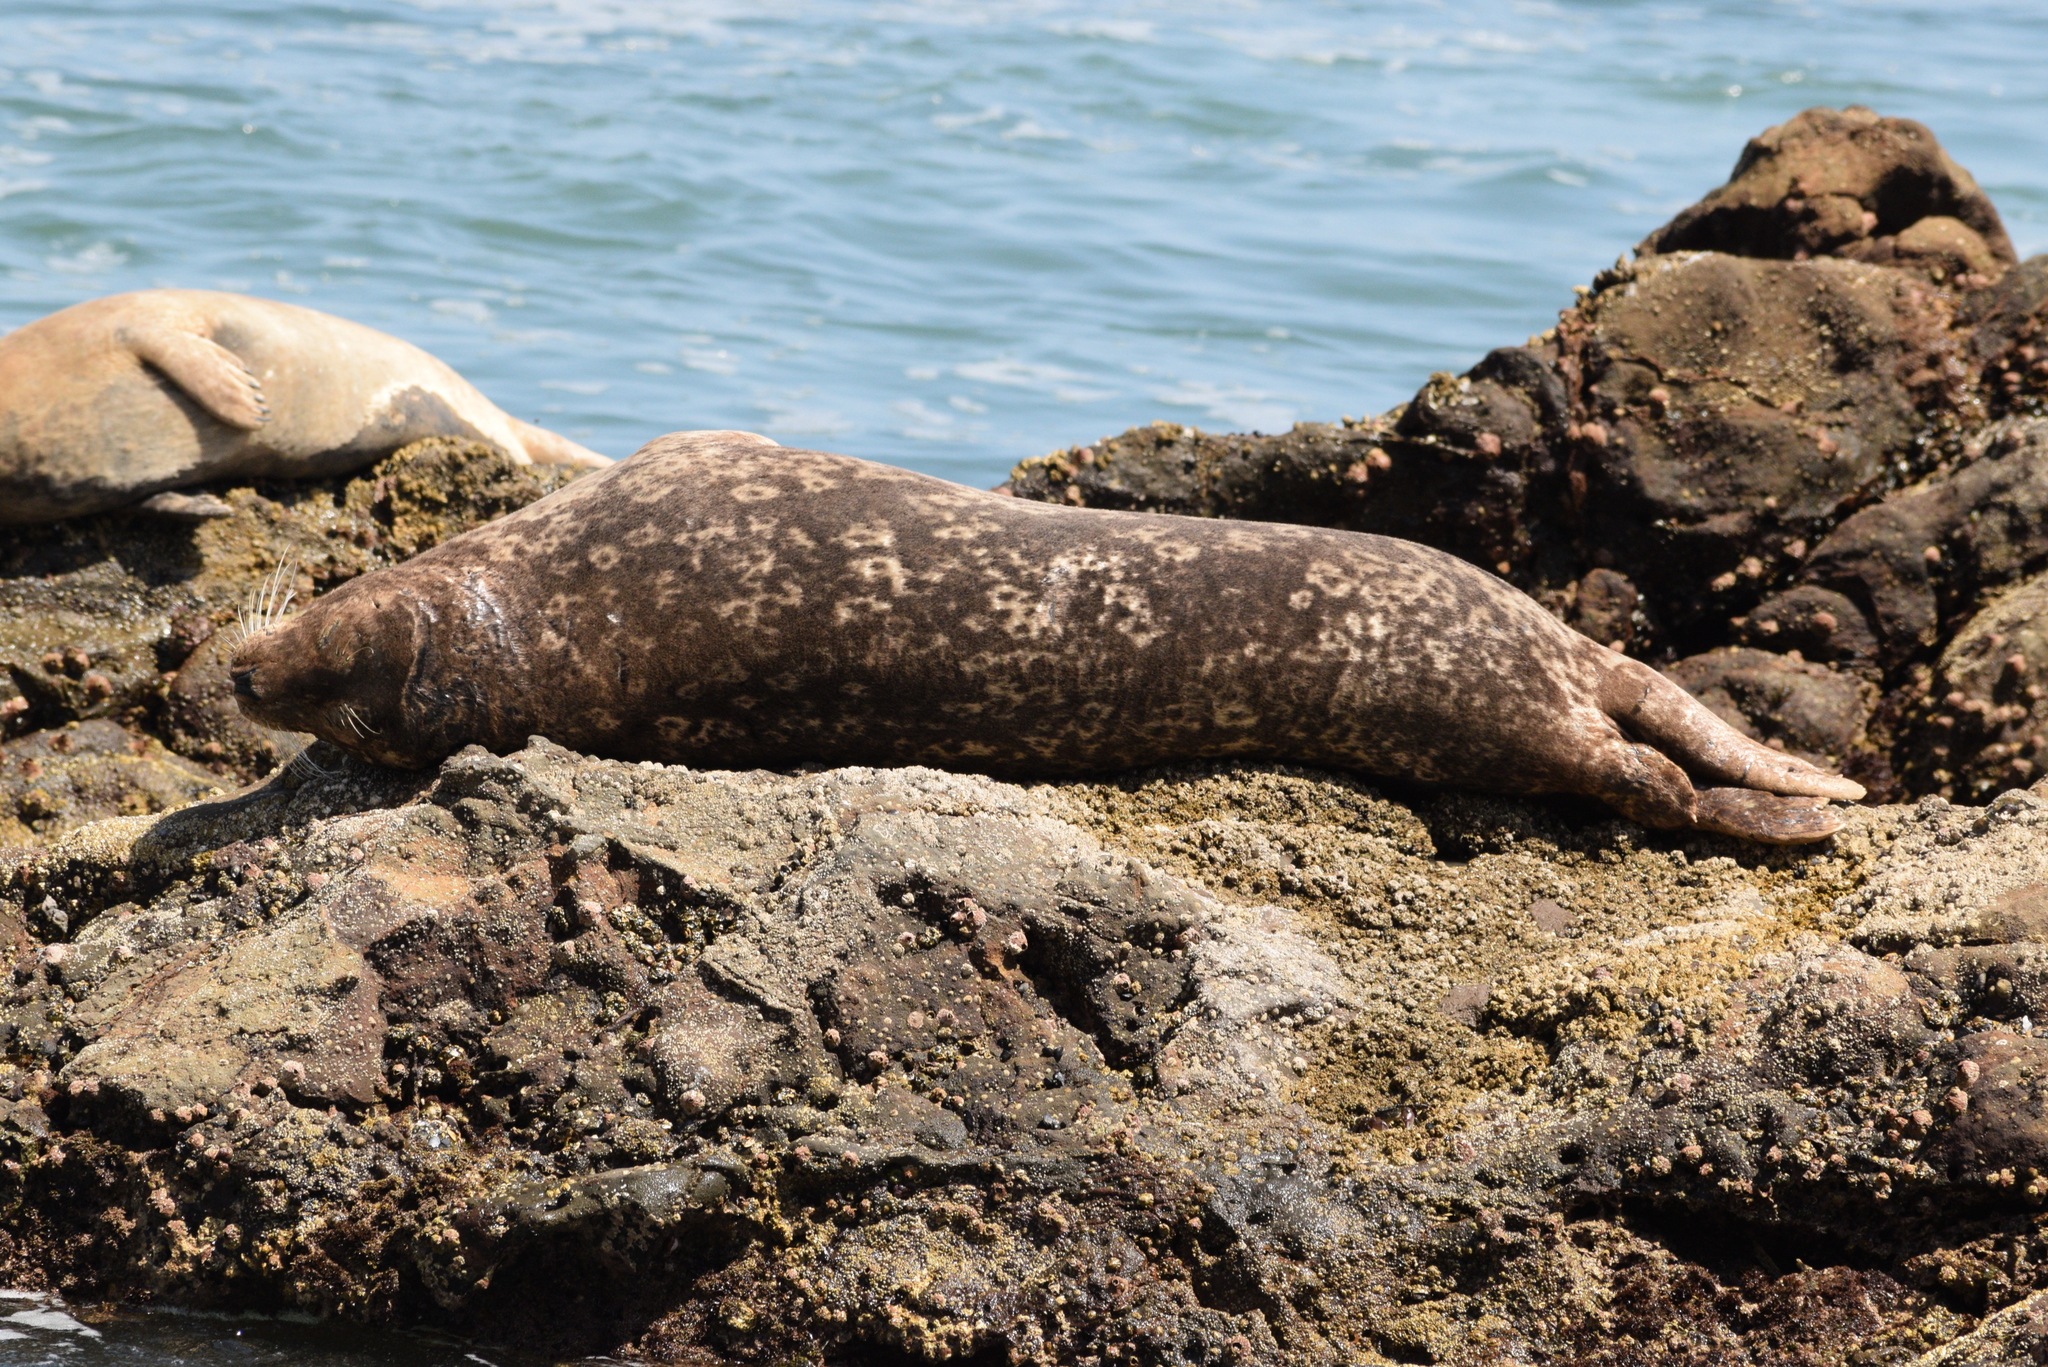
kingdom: Animalia
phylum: Chordata
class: Mammalia
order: Carnivora
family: Phocidae
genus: Phoca
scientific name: Phoca vitulina
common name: Harbor seal
